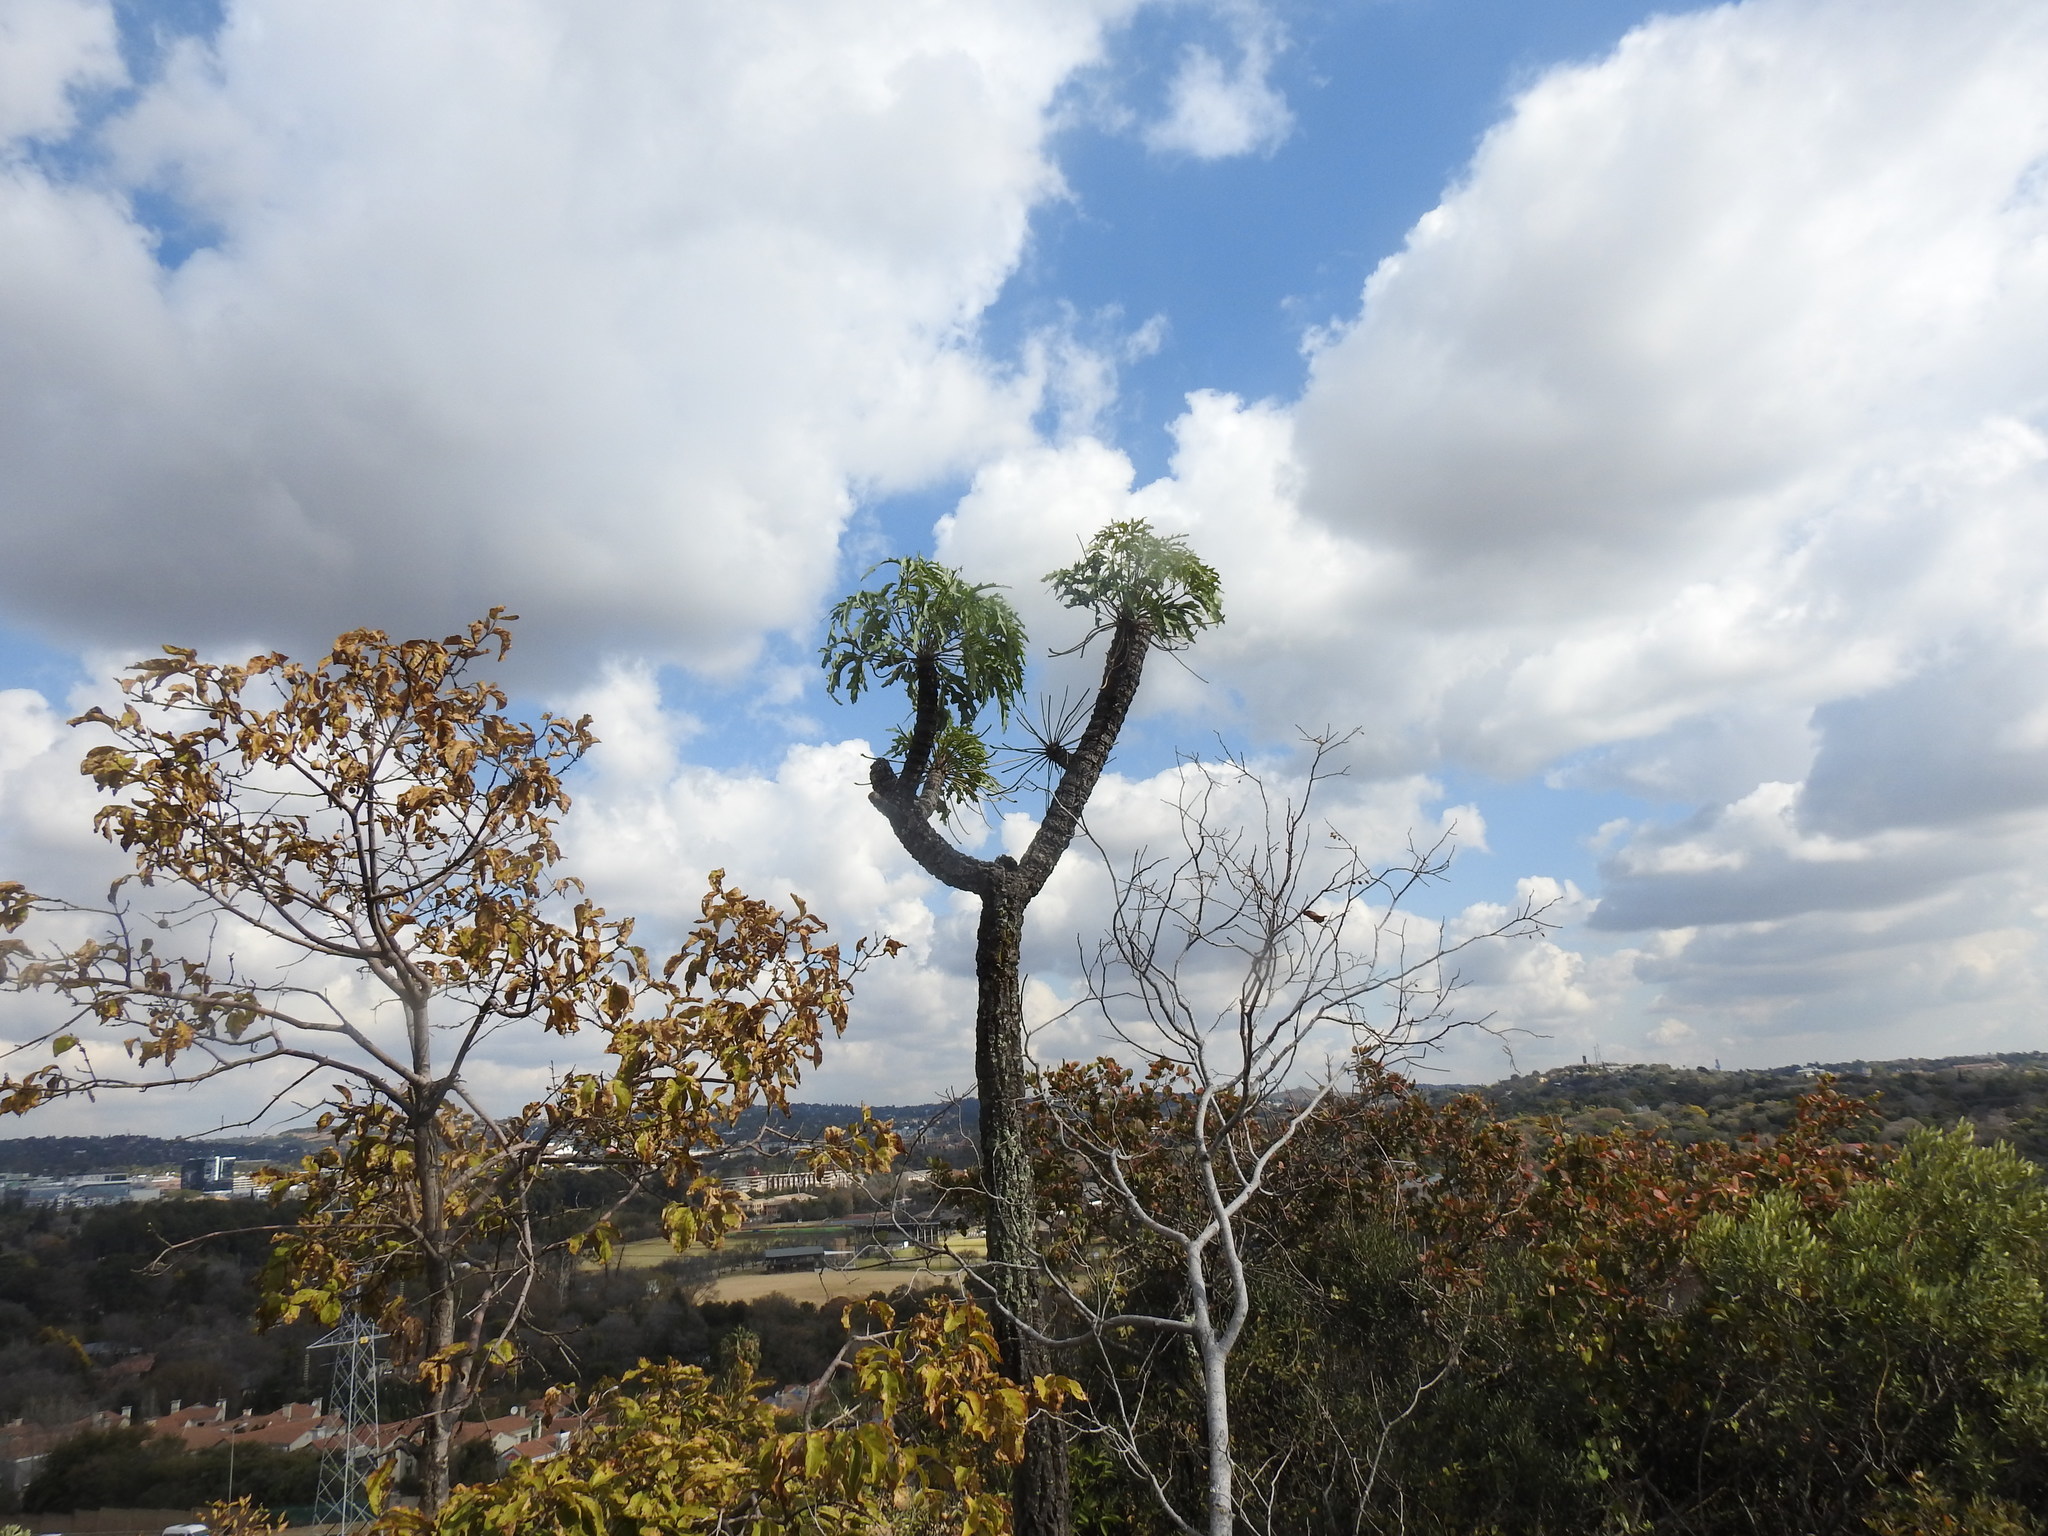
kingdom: Plantae
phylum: Tracheophyta
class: Magnoliopsida
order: Apiales
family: Araliaceae
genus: Cussonia
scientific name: Cussonia paniculata
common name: Cabbagetree
